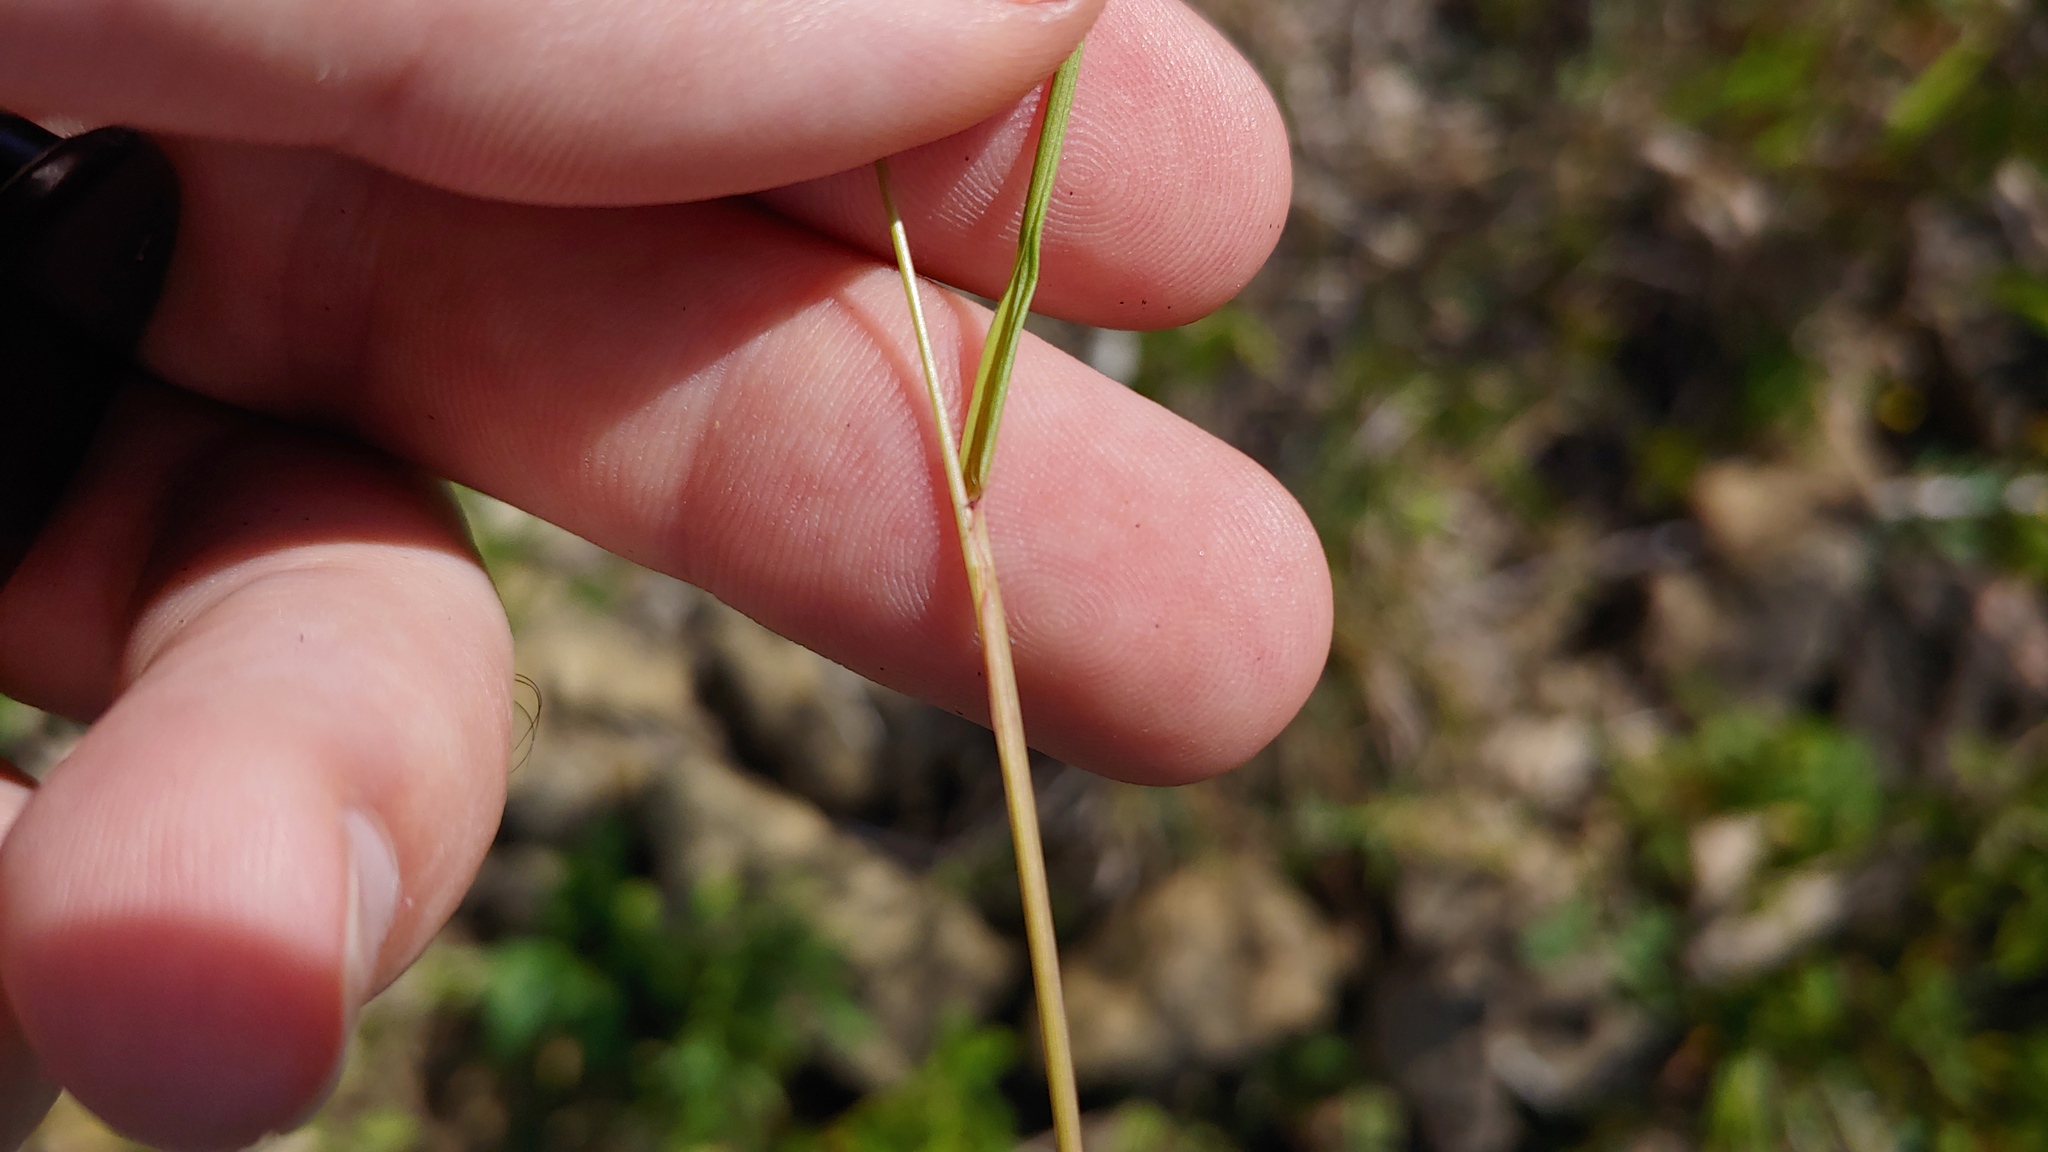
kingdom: Plantae
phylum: Tracheophyta
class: Liliopsida
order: Poales
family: Poaceae
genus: Eragrostis
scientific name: Eragrostis frankii
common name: Frank's lovegrass
